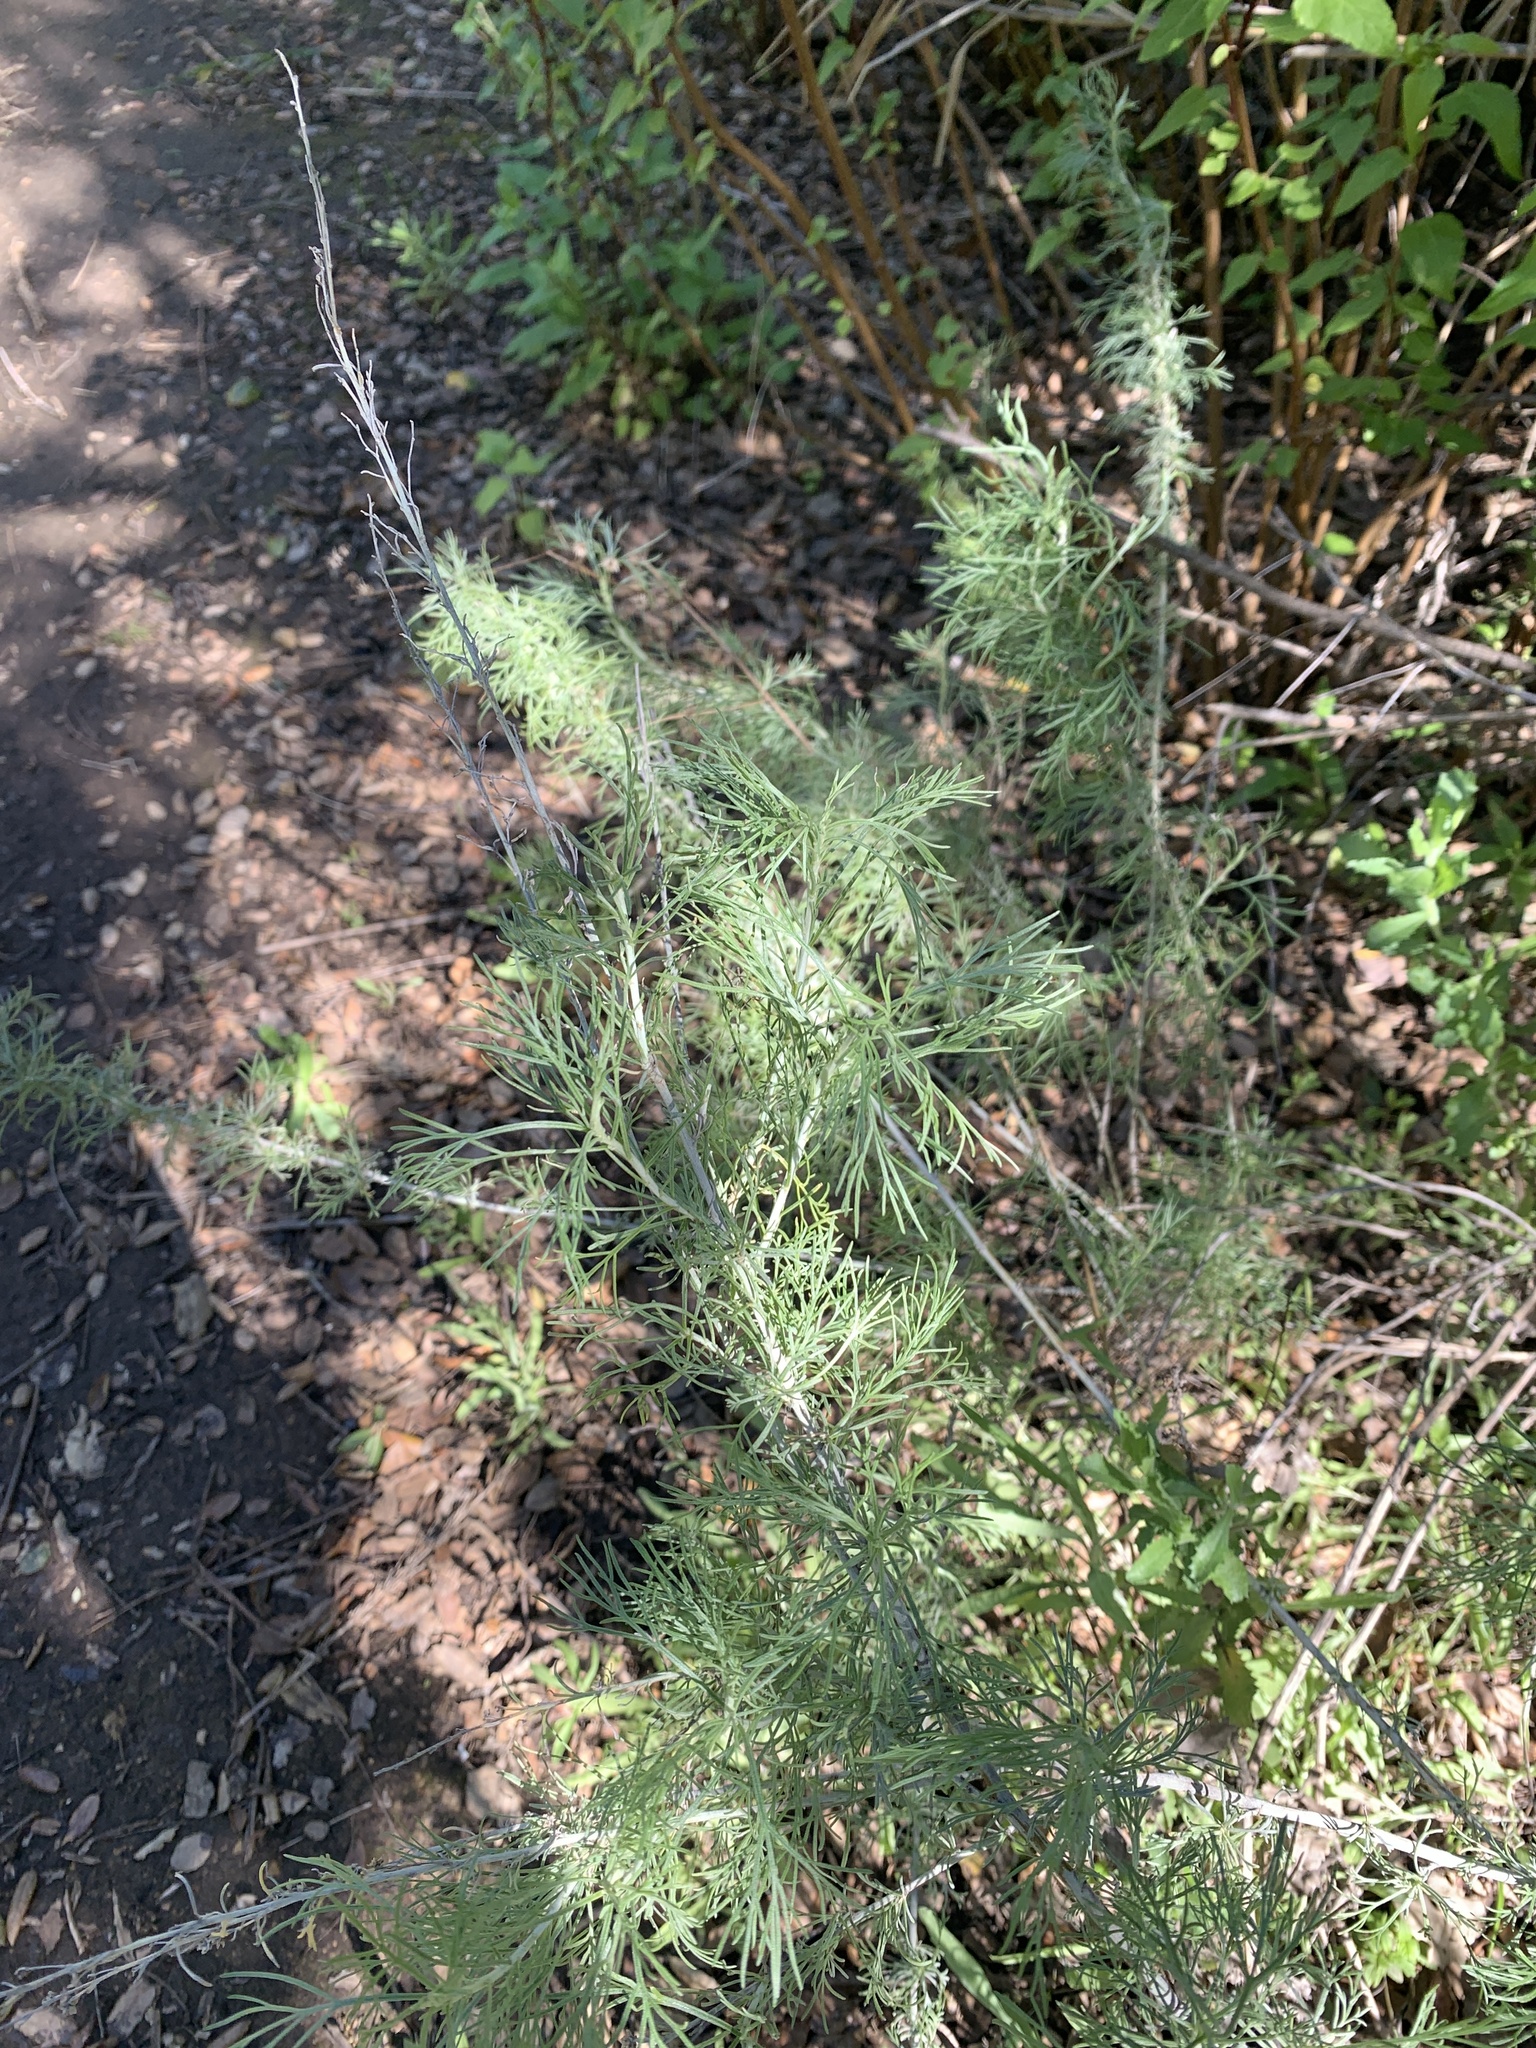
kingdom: Plantae
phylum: Tracheophyta
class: Magnoliopsida
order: Asterales
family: Asteraceae
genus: Artemisia
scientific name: Artemisia californica
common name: California sagebrush
